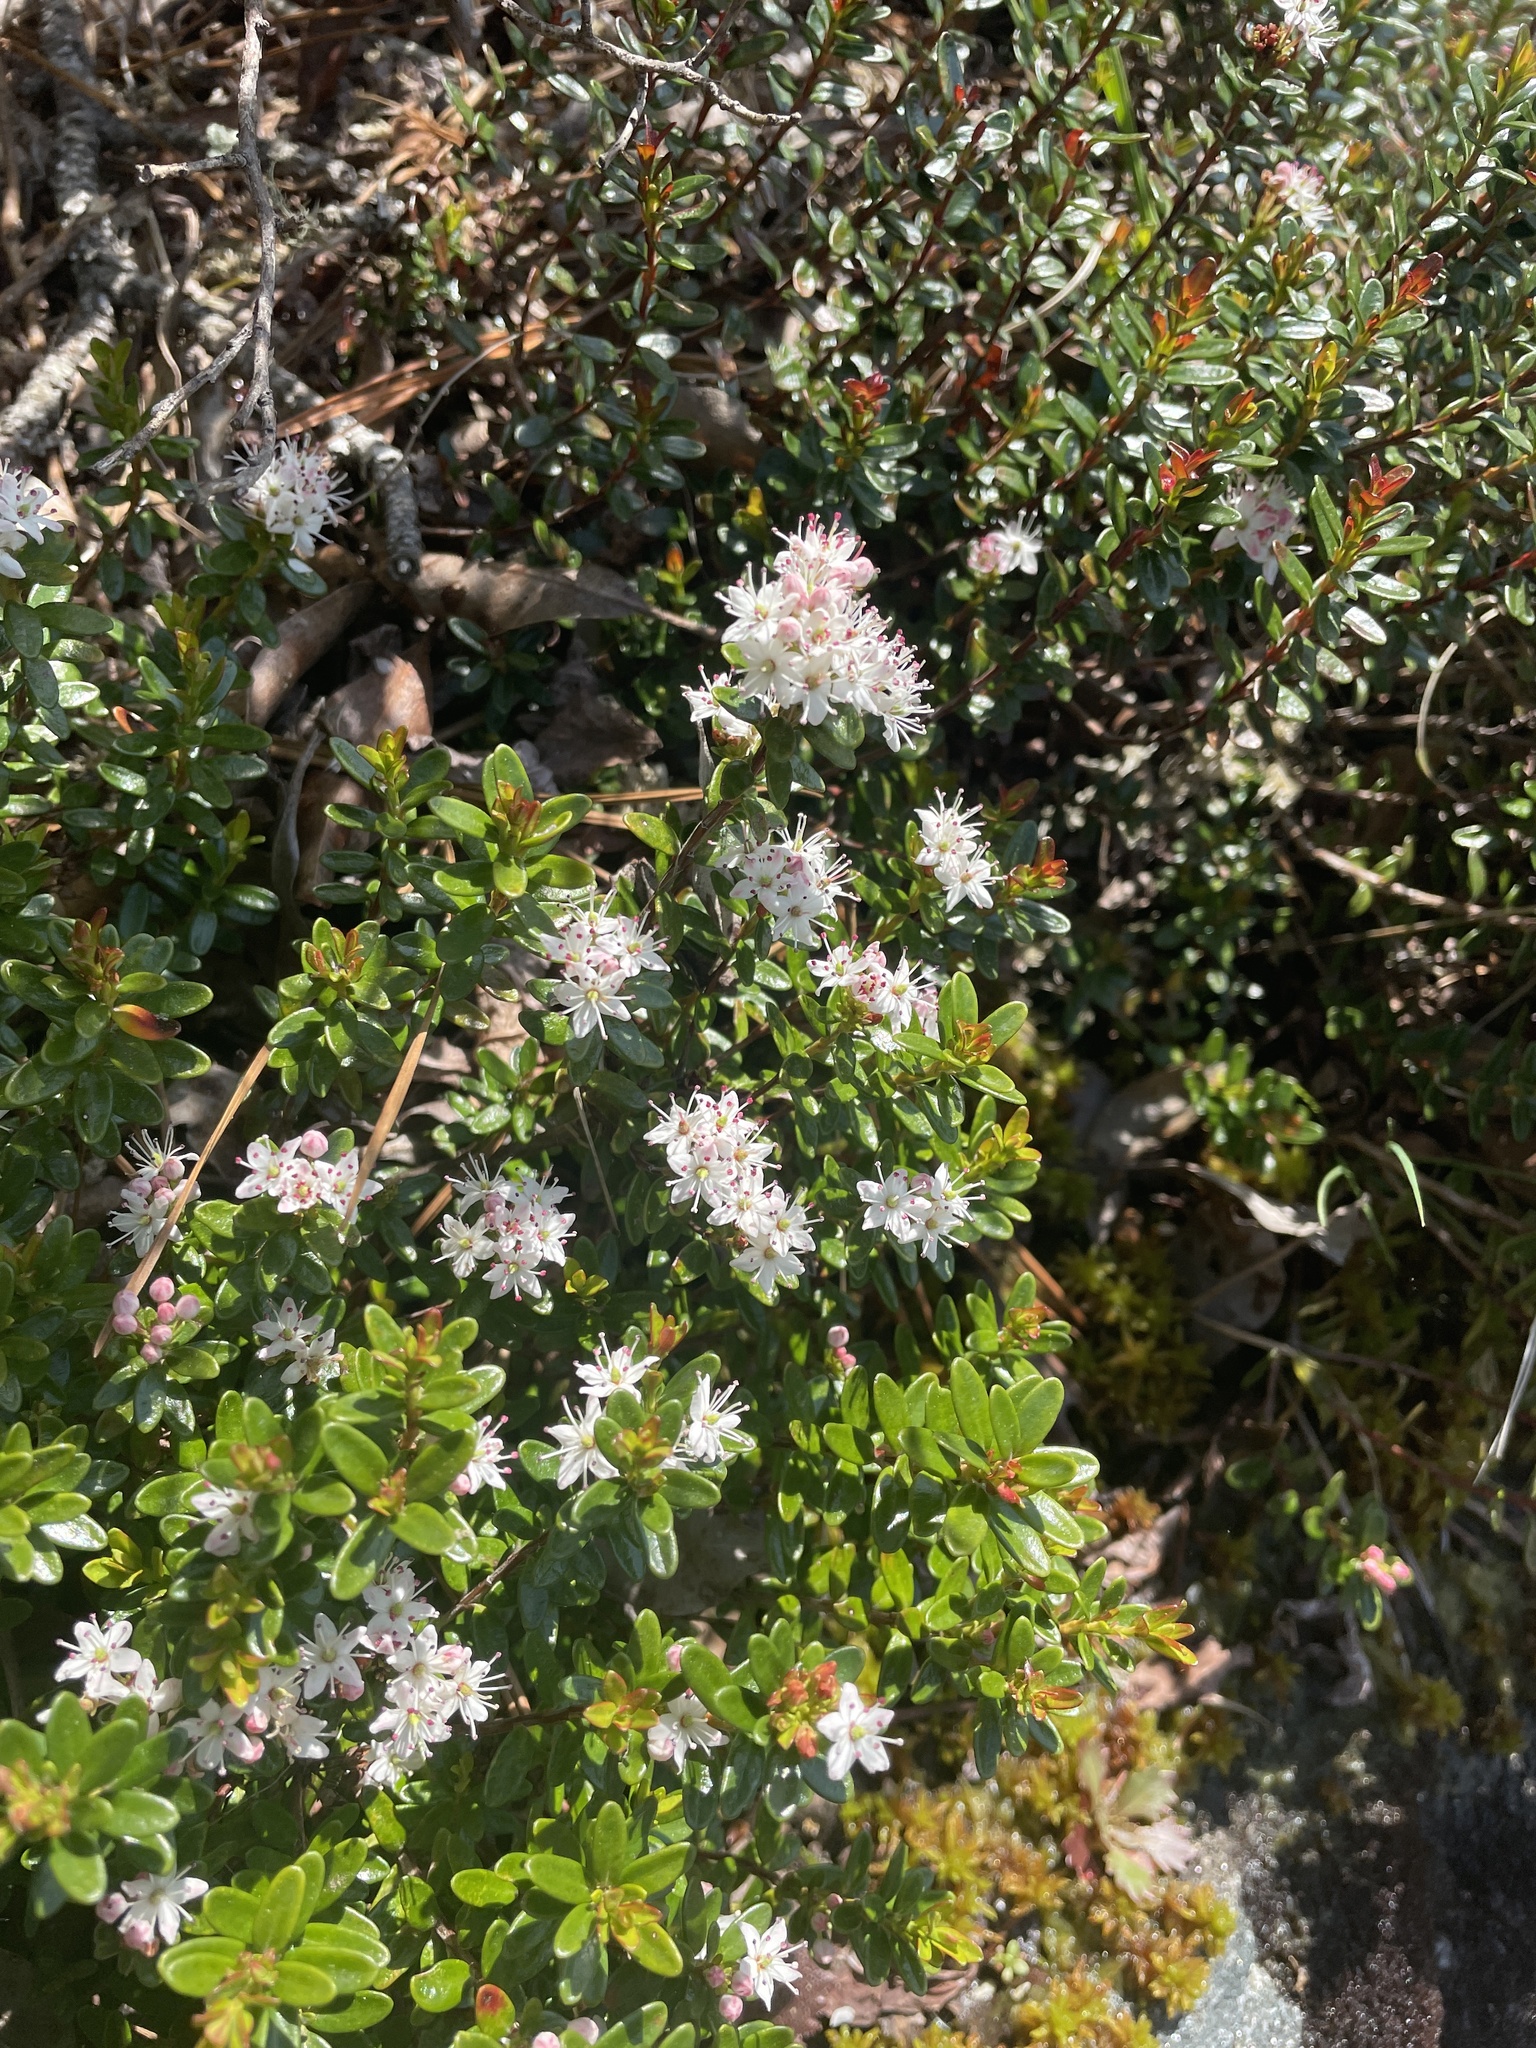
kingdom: Plantae
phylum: Tracheophyta
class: Magnoliopsida
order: Ericales
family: Ericaceae
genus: Kalmia
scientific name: Kalmia buxifolia
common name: Sandmyrtle
